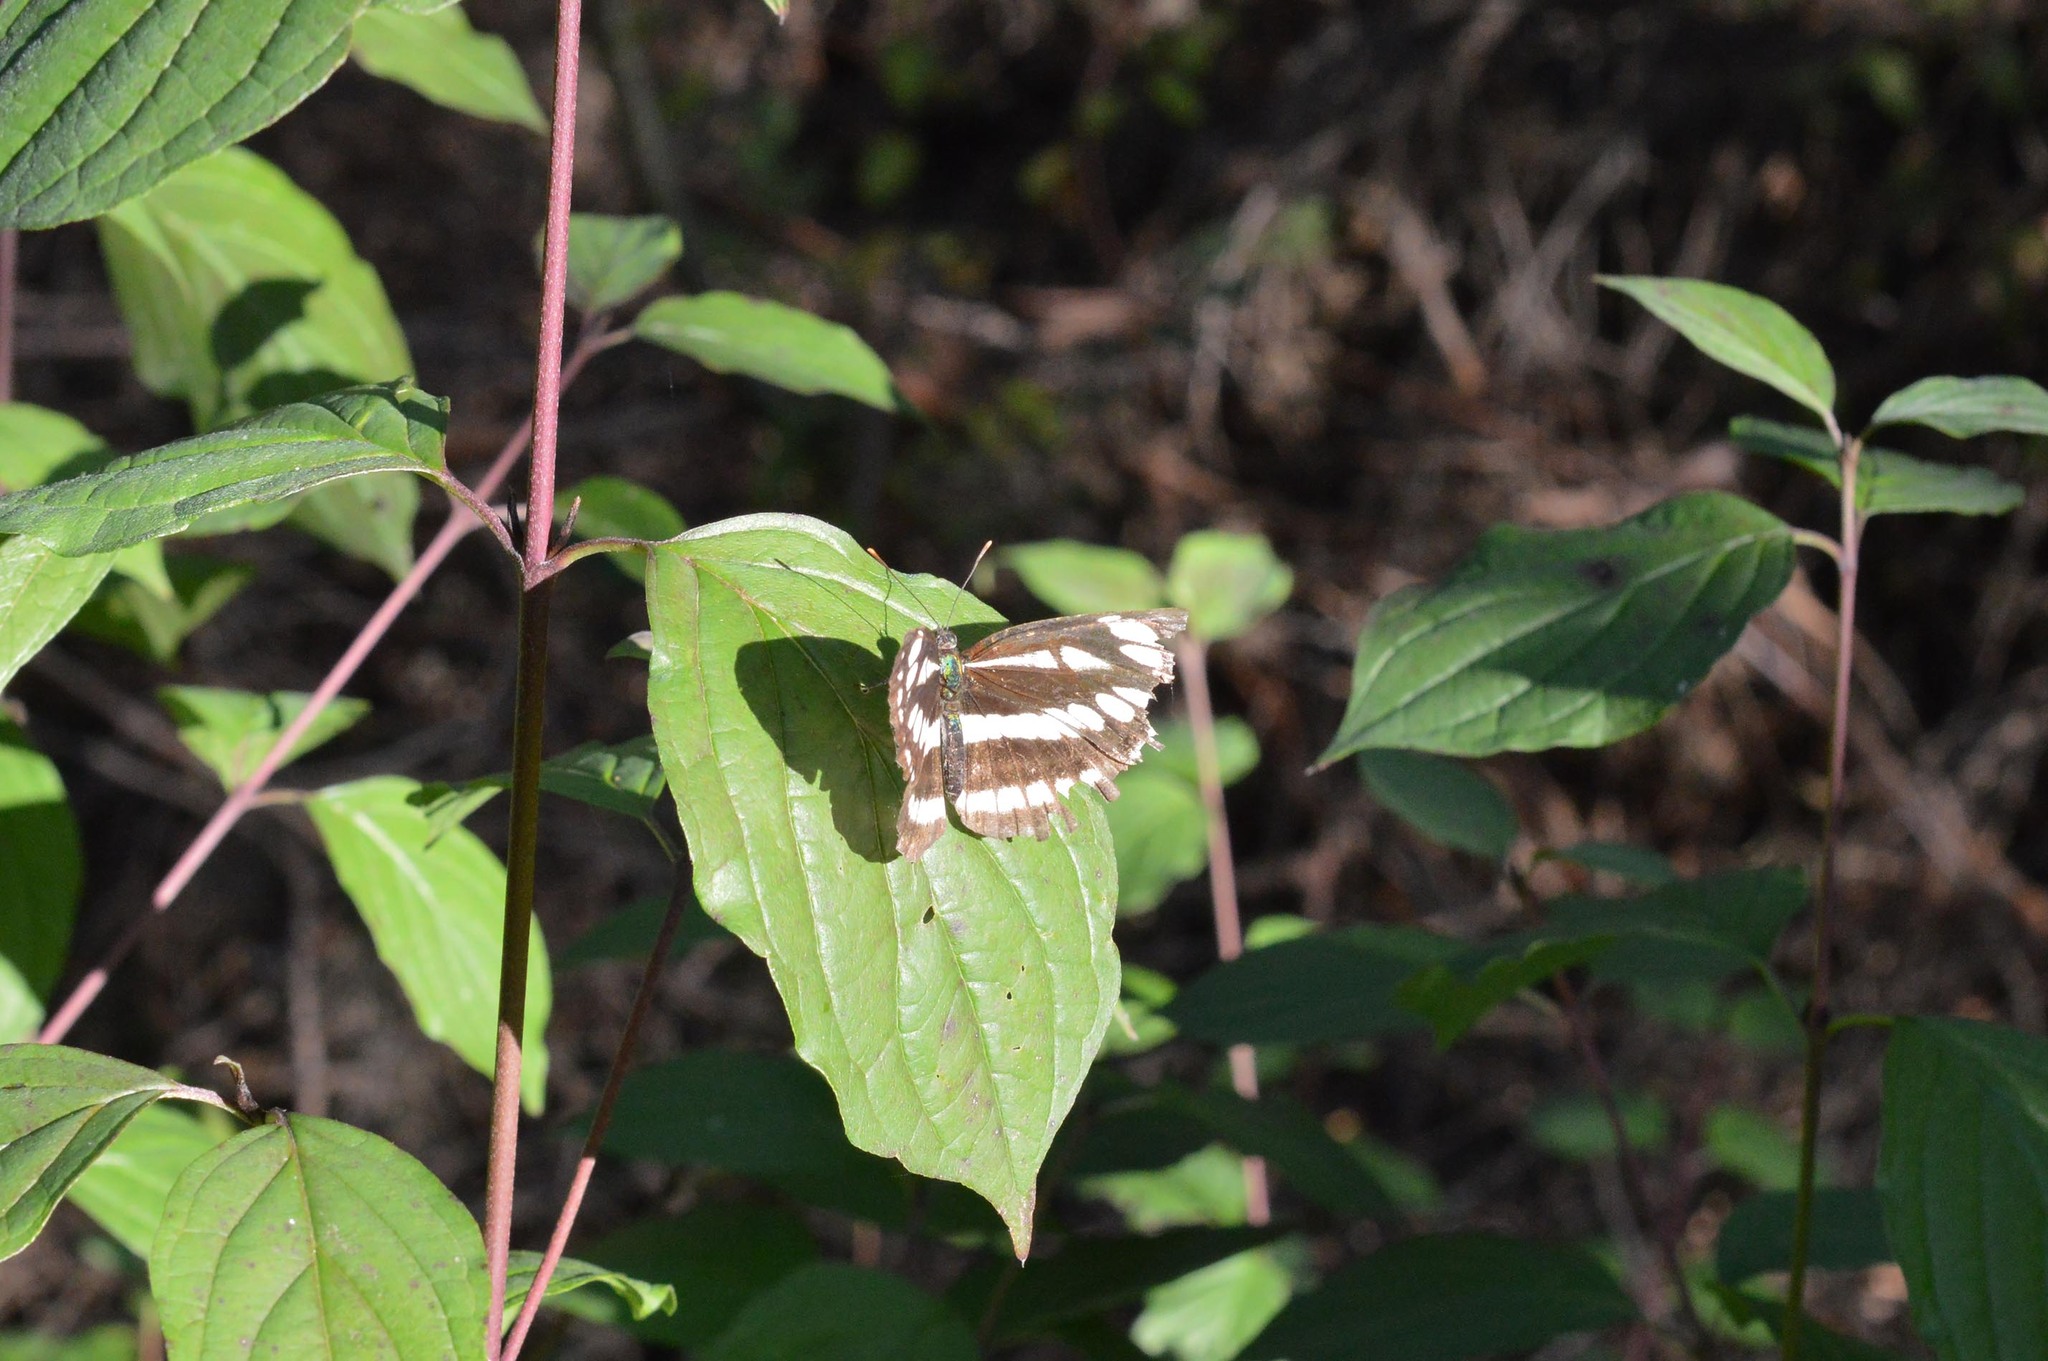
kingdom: Animalia
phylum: Arthropoda
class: Insecta
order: Lepidoptera
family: Nymphalidae
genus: Neptis
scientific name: Neptis sappho
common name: Common glider
